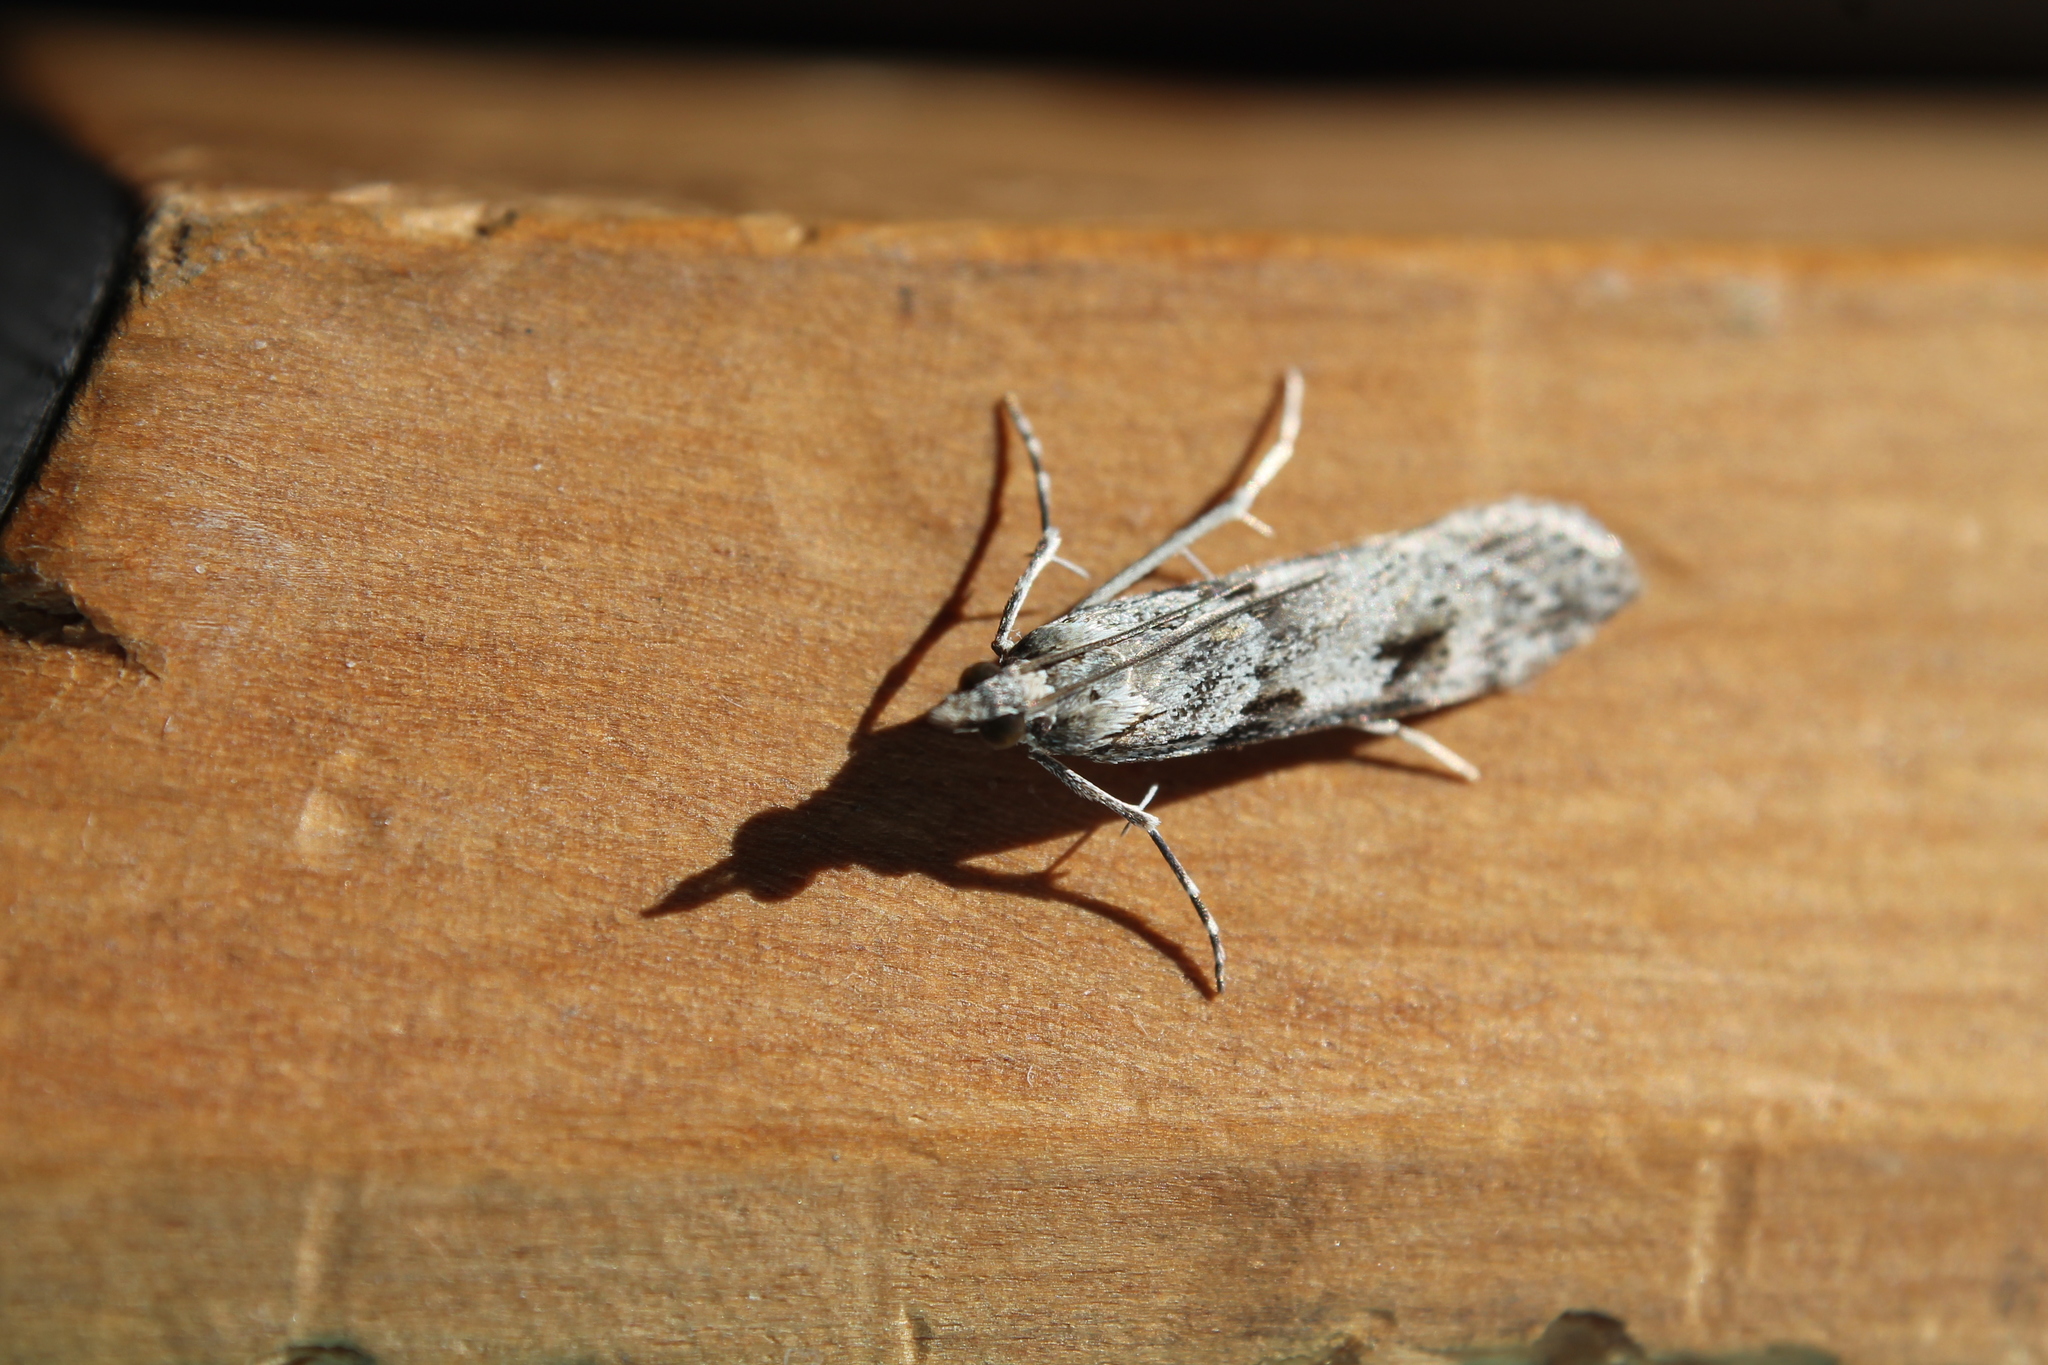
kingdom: Animalia
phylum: Arthropoda
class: Insecta
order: Lepidoptera
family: Crambidae
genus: Scoparia
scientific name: Scoparia halopis
